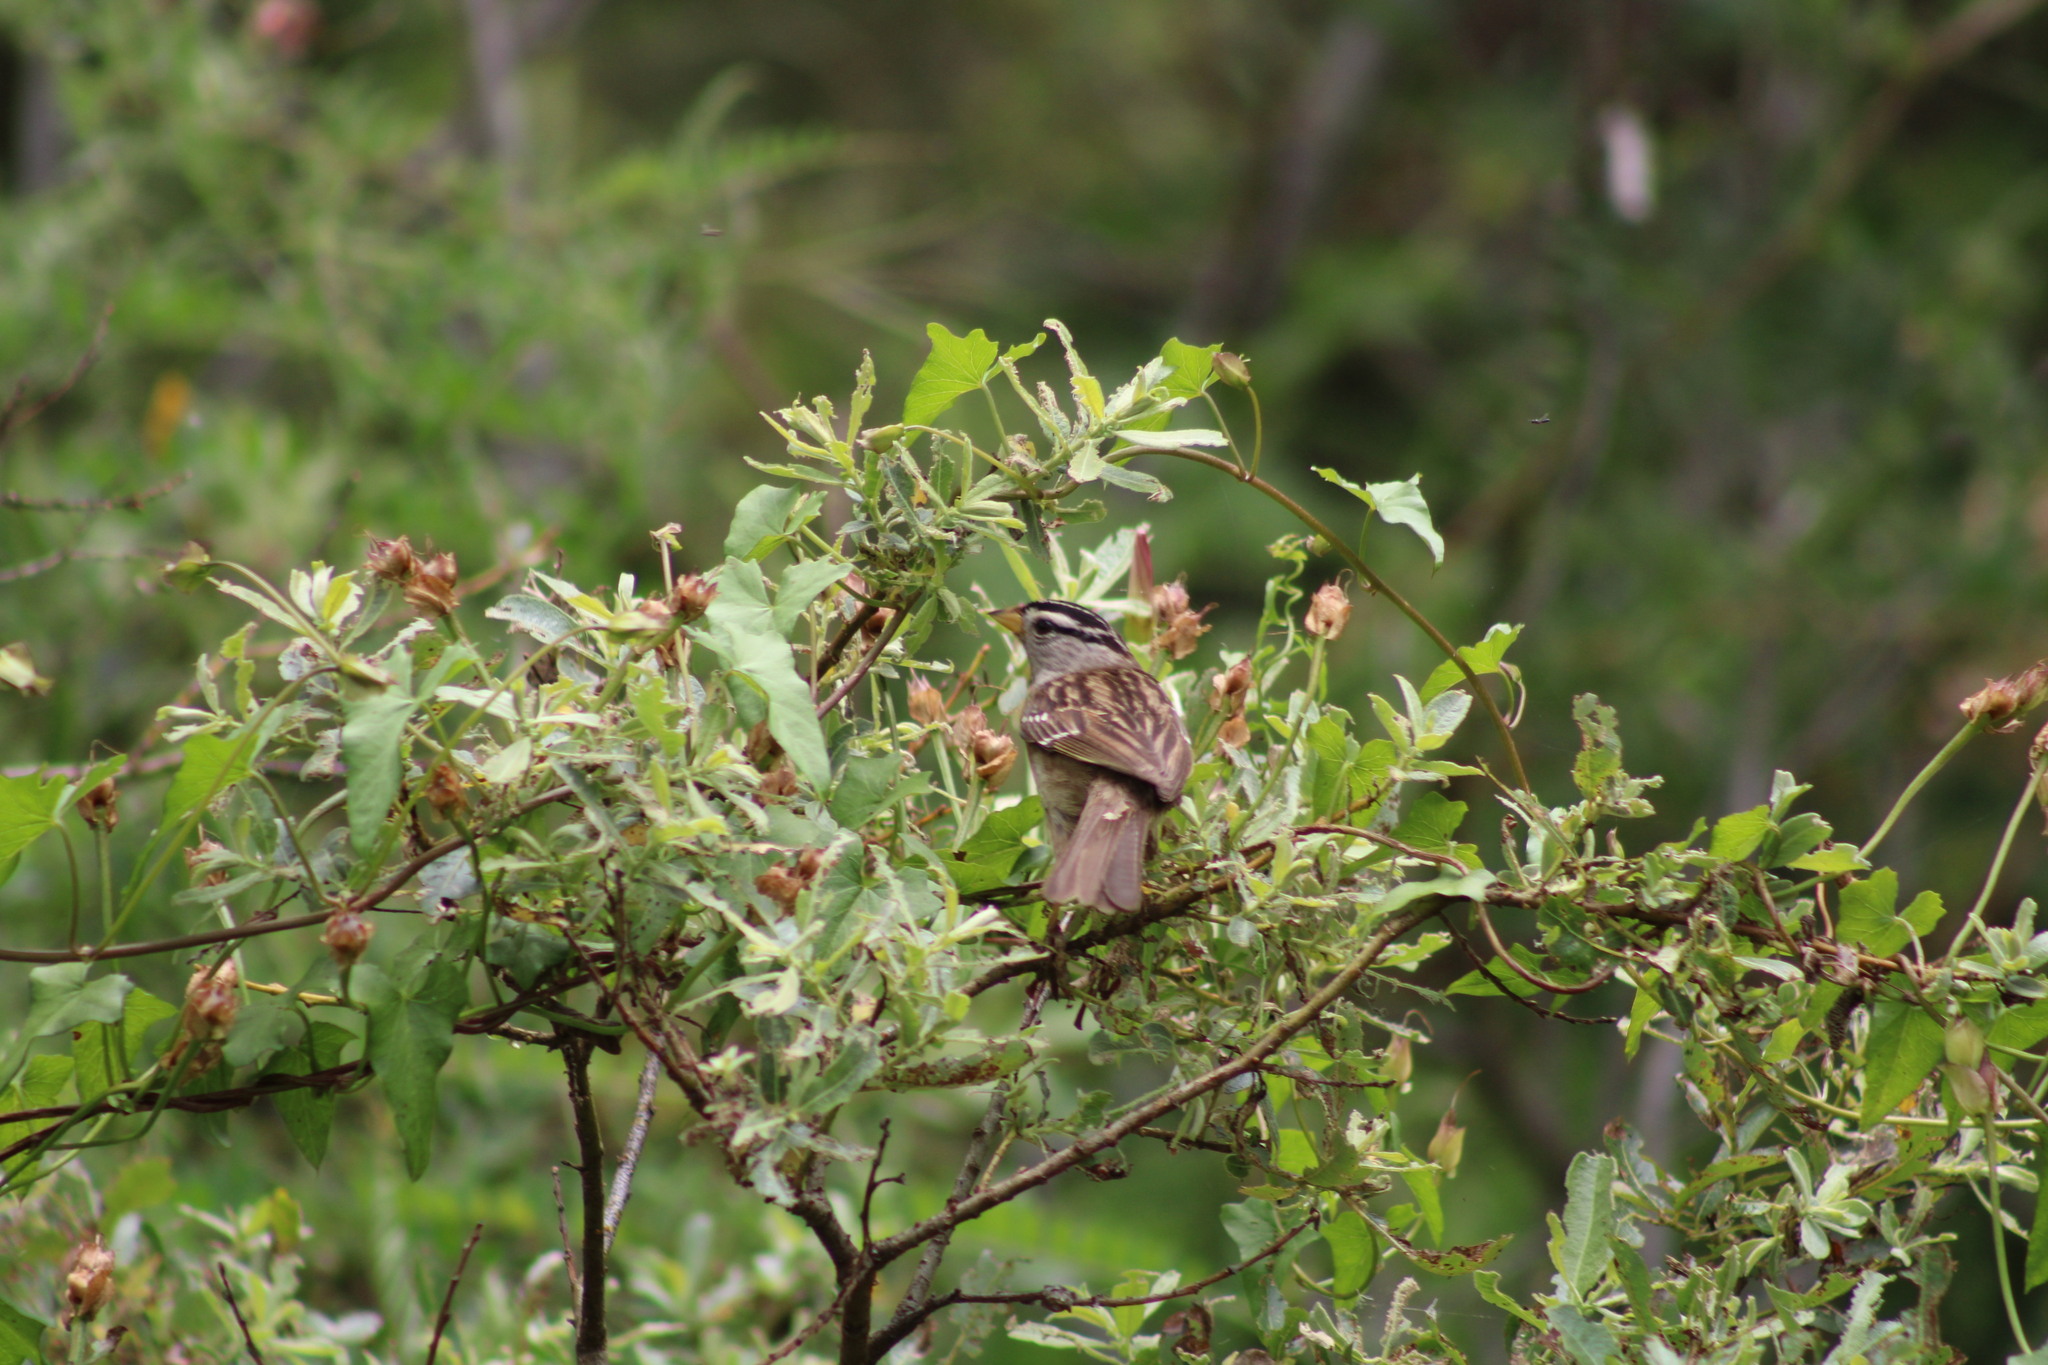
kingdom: Animalia
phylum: Chordata
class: Aves
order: Passeriformes
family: Passerellidae
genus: Zonotrichia
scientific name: Zonotrichia leucophrys
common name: White-crowned sparrow
